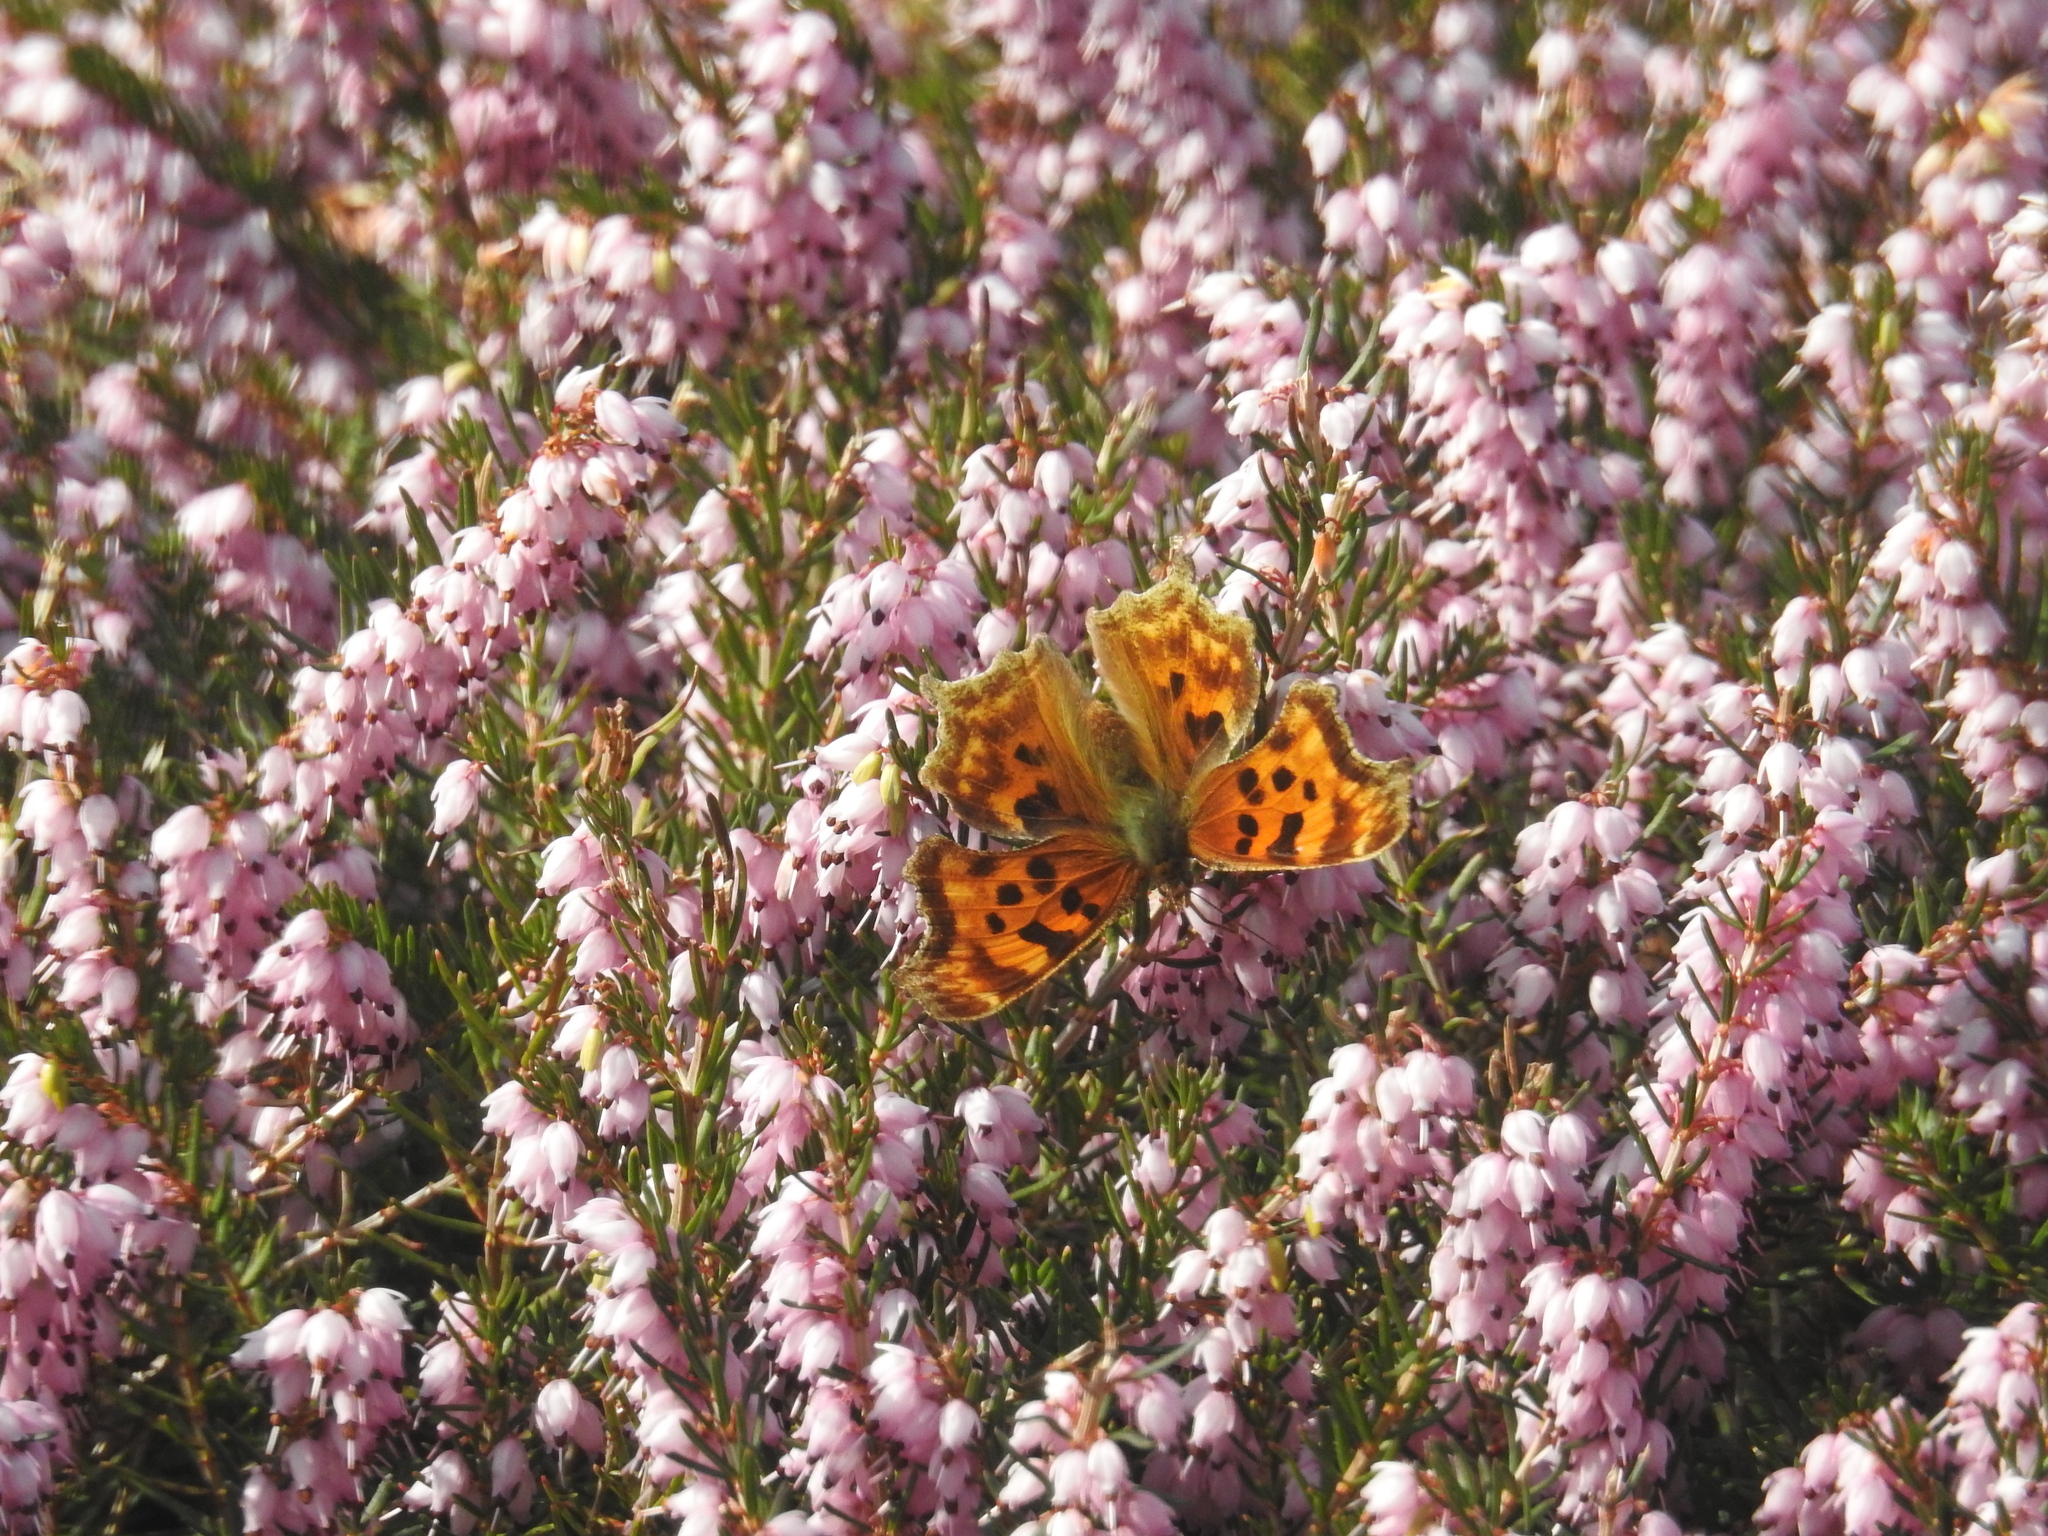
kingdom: Animalia
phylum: Arthropoda
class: Insecta
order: Lepidoptera
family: Nymphalidae
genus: Polygonia
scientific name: Polygonia satyrus
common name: Satyr angle wing
